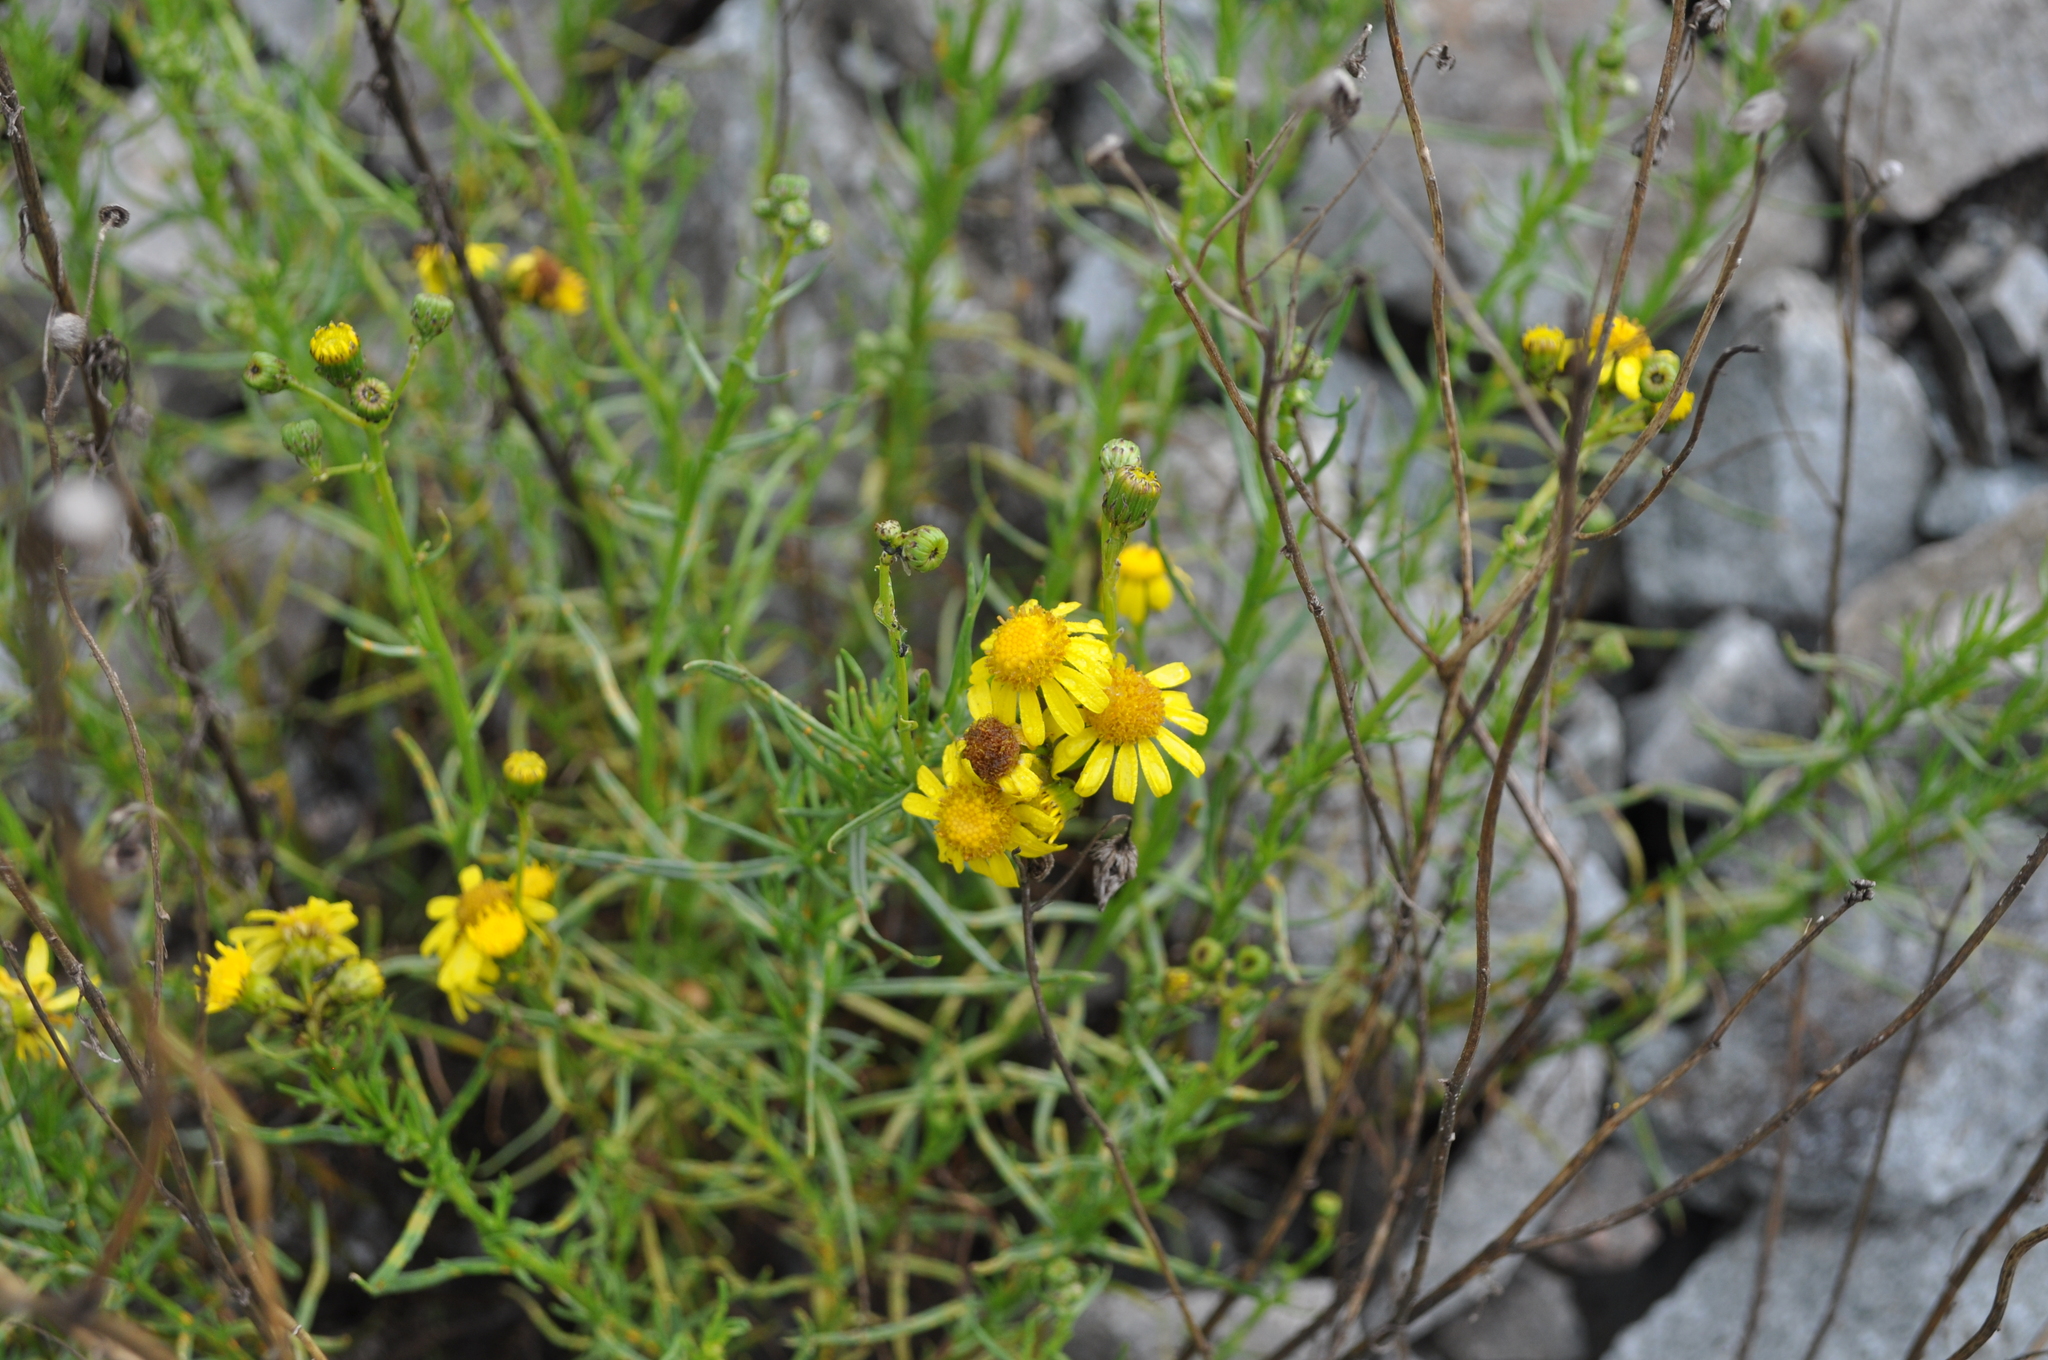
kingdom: Plantae
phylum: Tracheophyta
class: Magnoliopsida
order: Asterales
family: Asteraceae
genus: Senecio
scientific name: Senecio inaequidens
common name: Narrow-leaved ragwort
